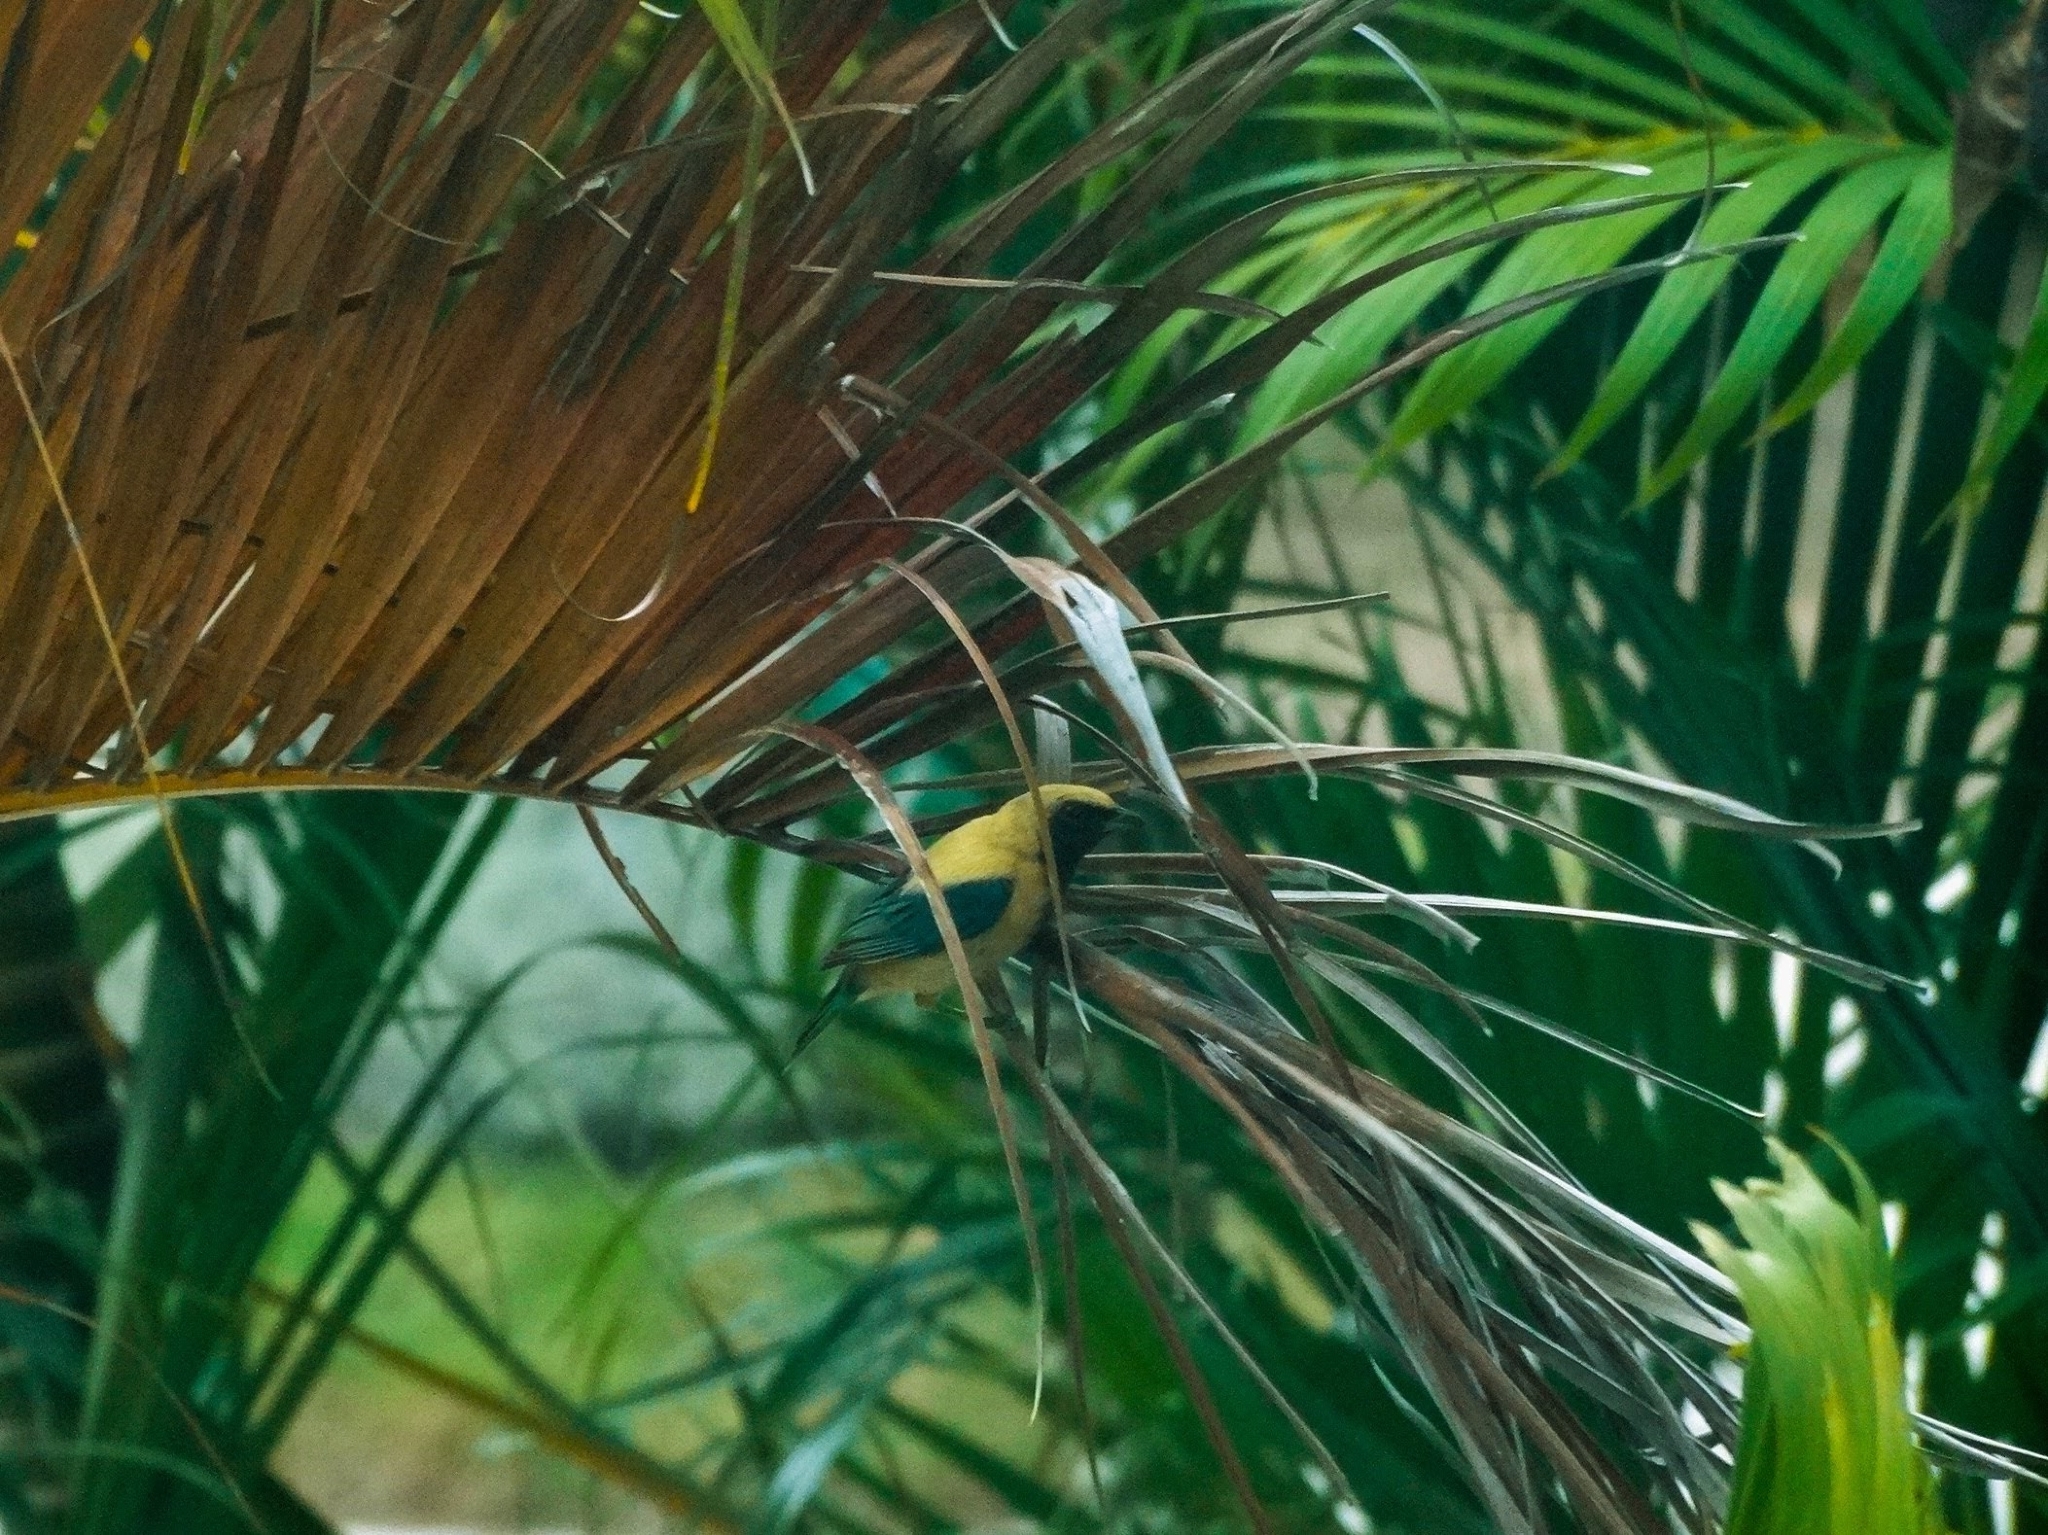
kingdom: Animalia
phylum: Chordata
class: Aves
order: Passeriformes
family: Thraupidae
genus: Stilpnia
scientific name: Stilpnia cayana
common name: Burnished-buff tanager
